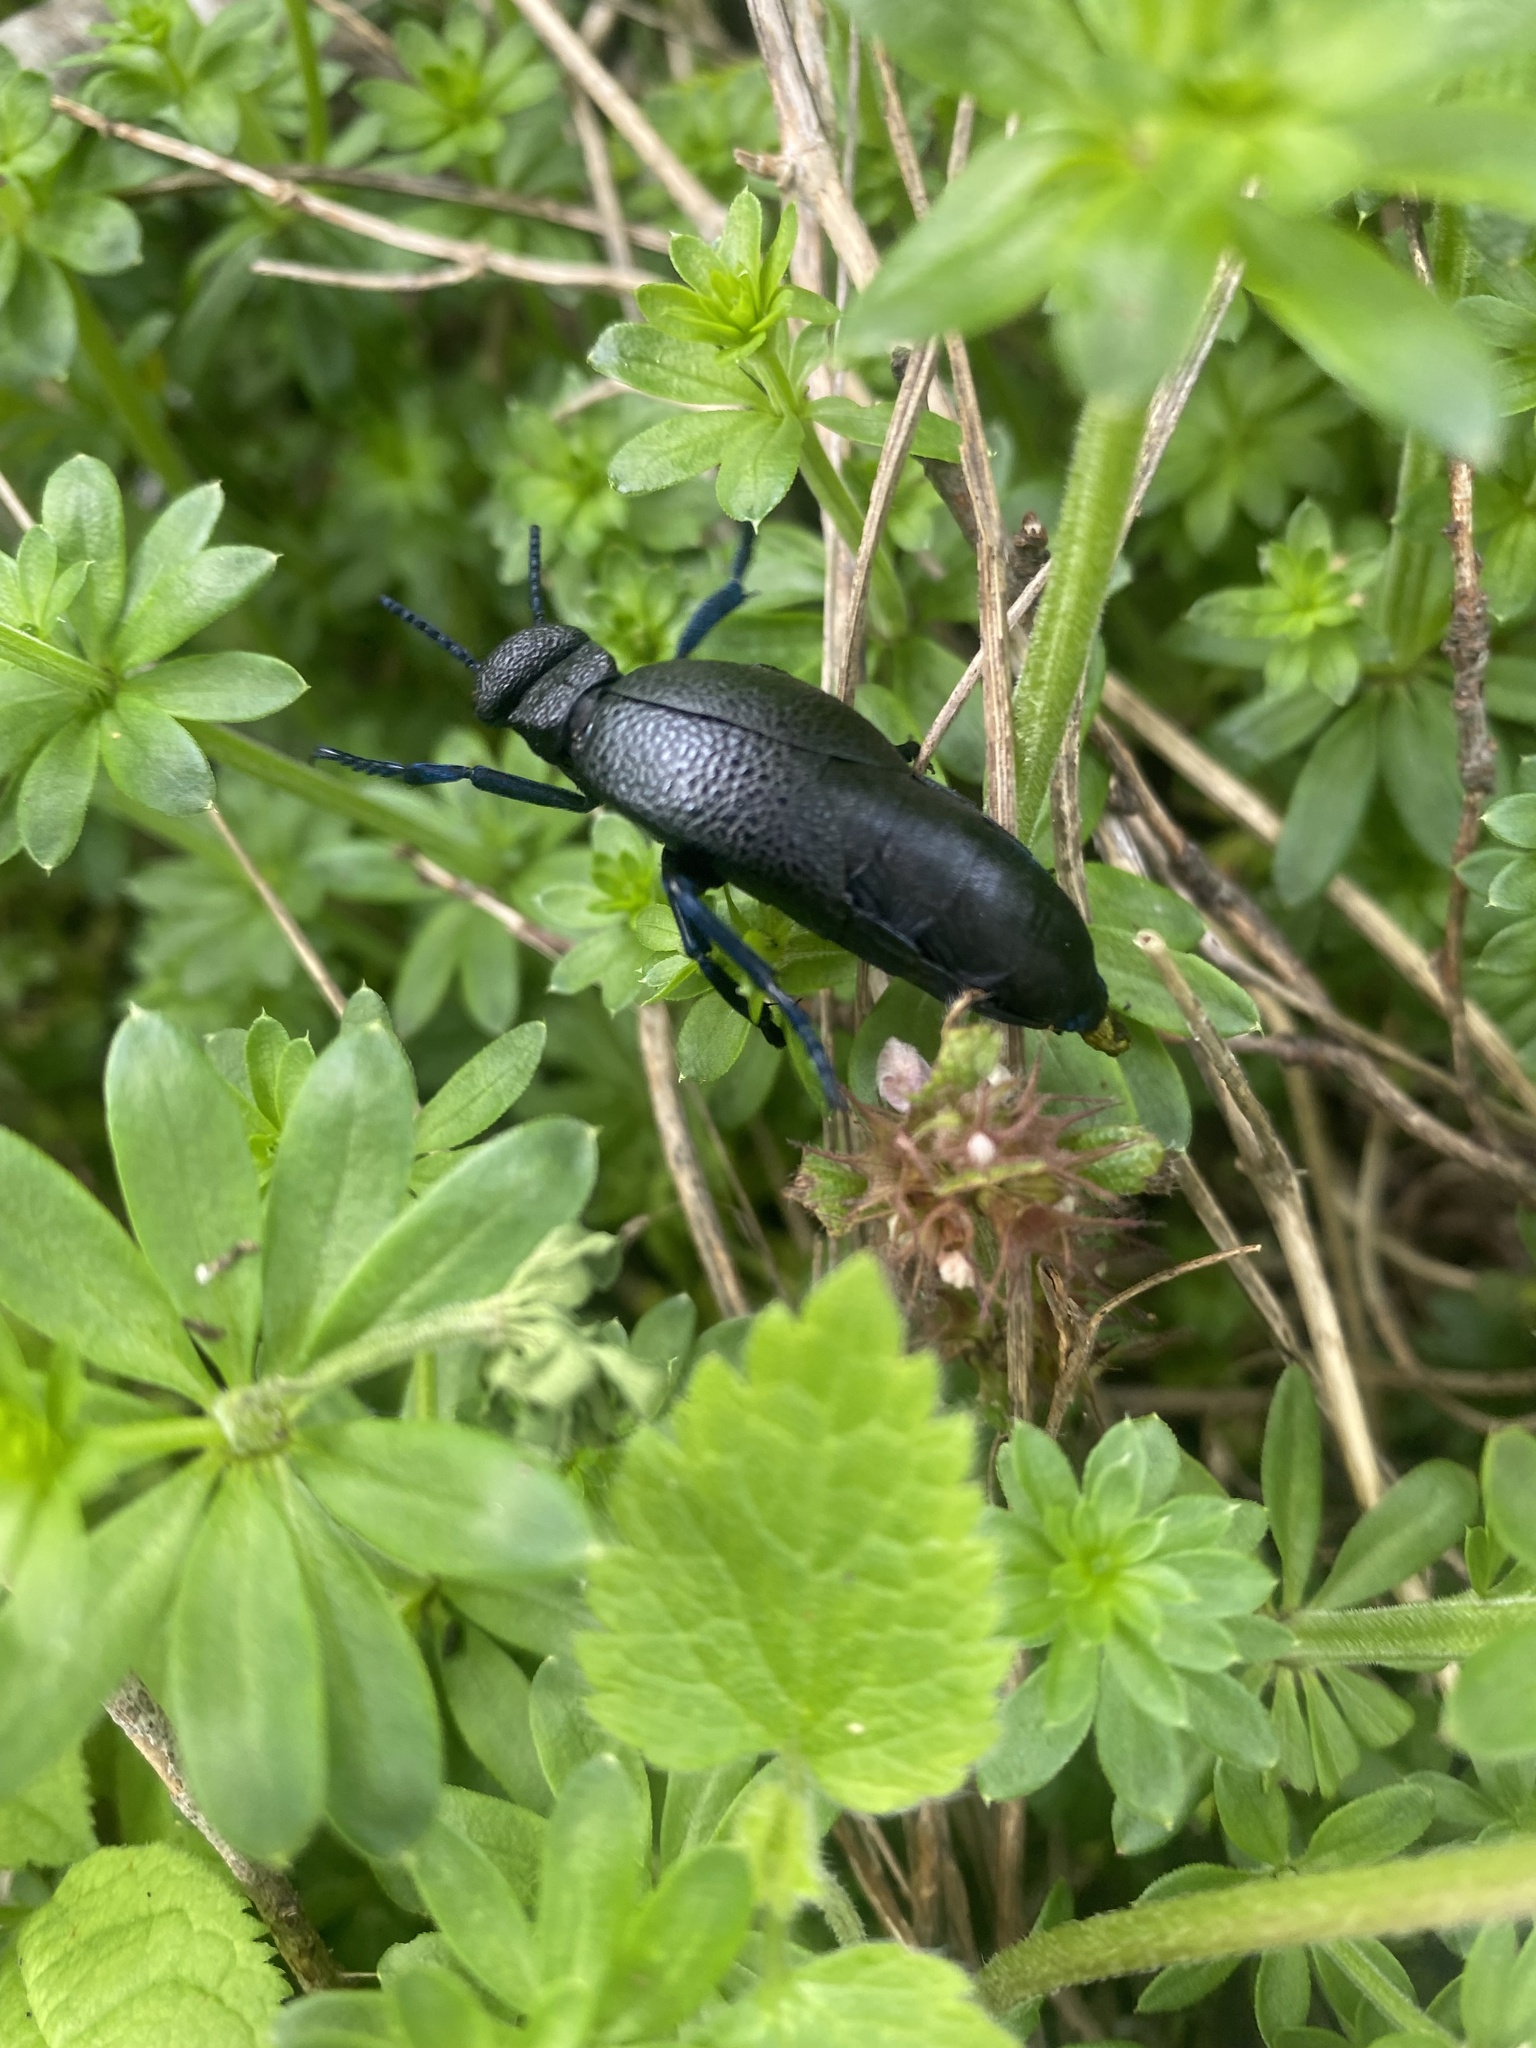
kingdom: Animalia
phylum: Arthropoda
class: Insecta
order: Coleoptera
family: Meloidae
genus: Meloe
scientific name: Meloe cicatricosus
